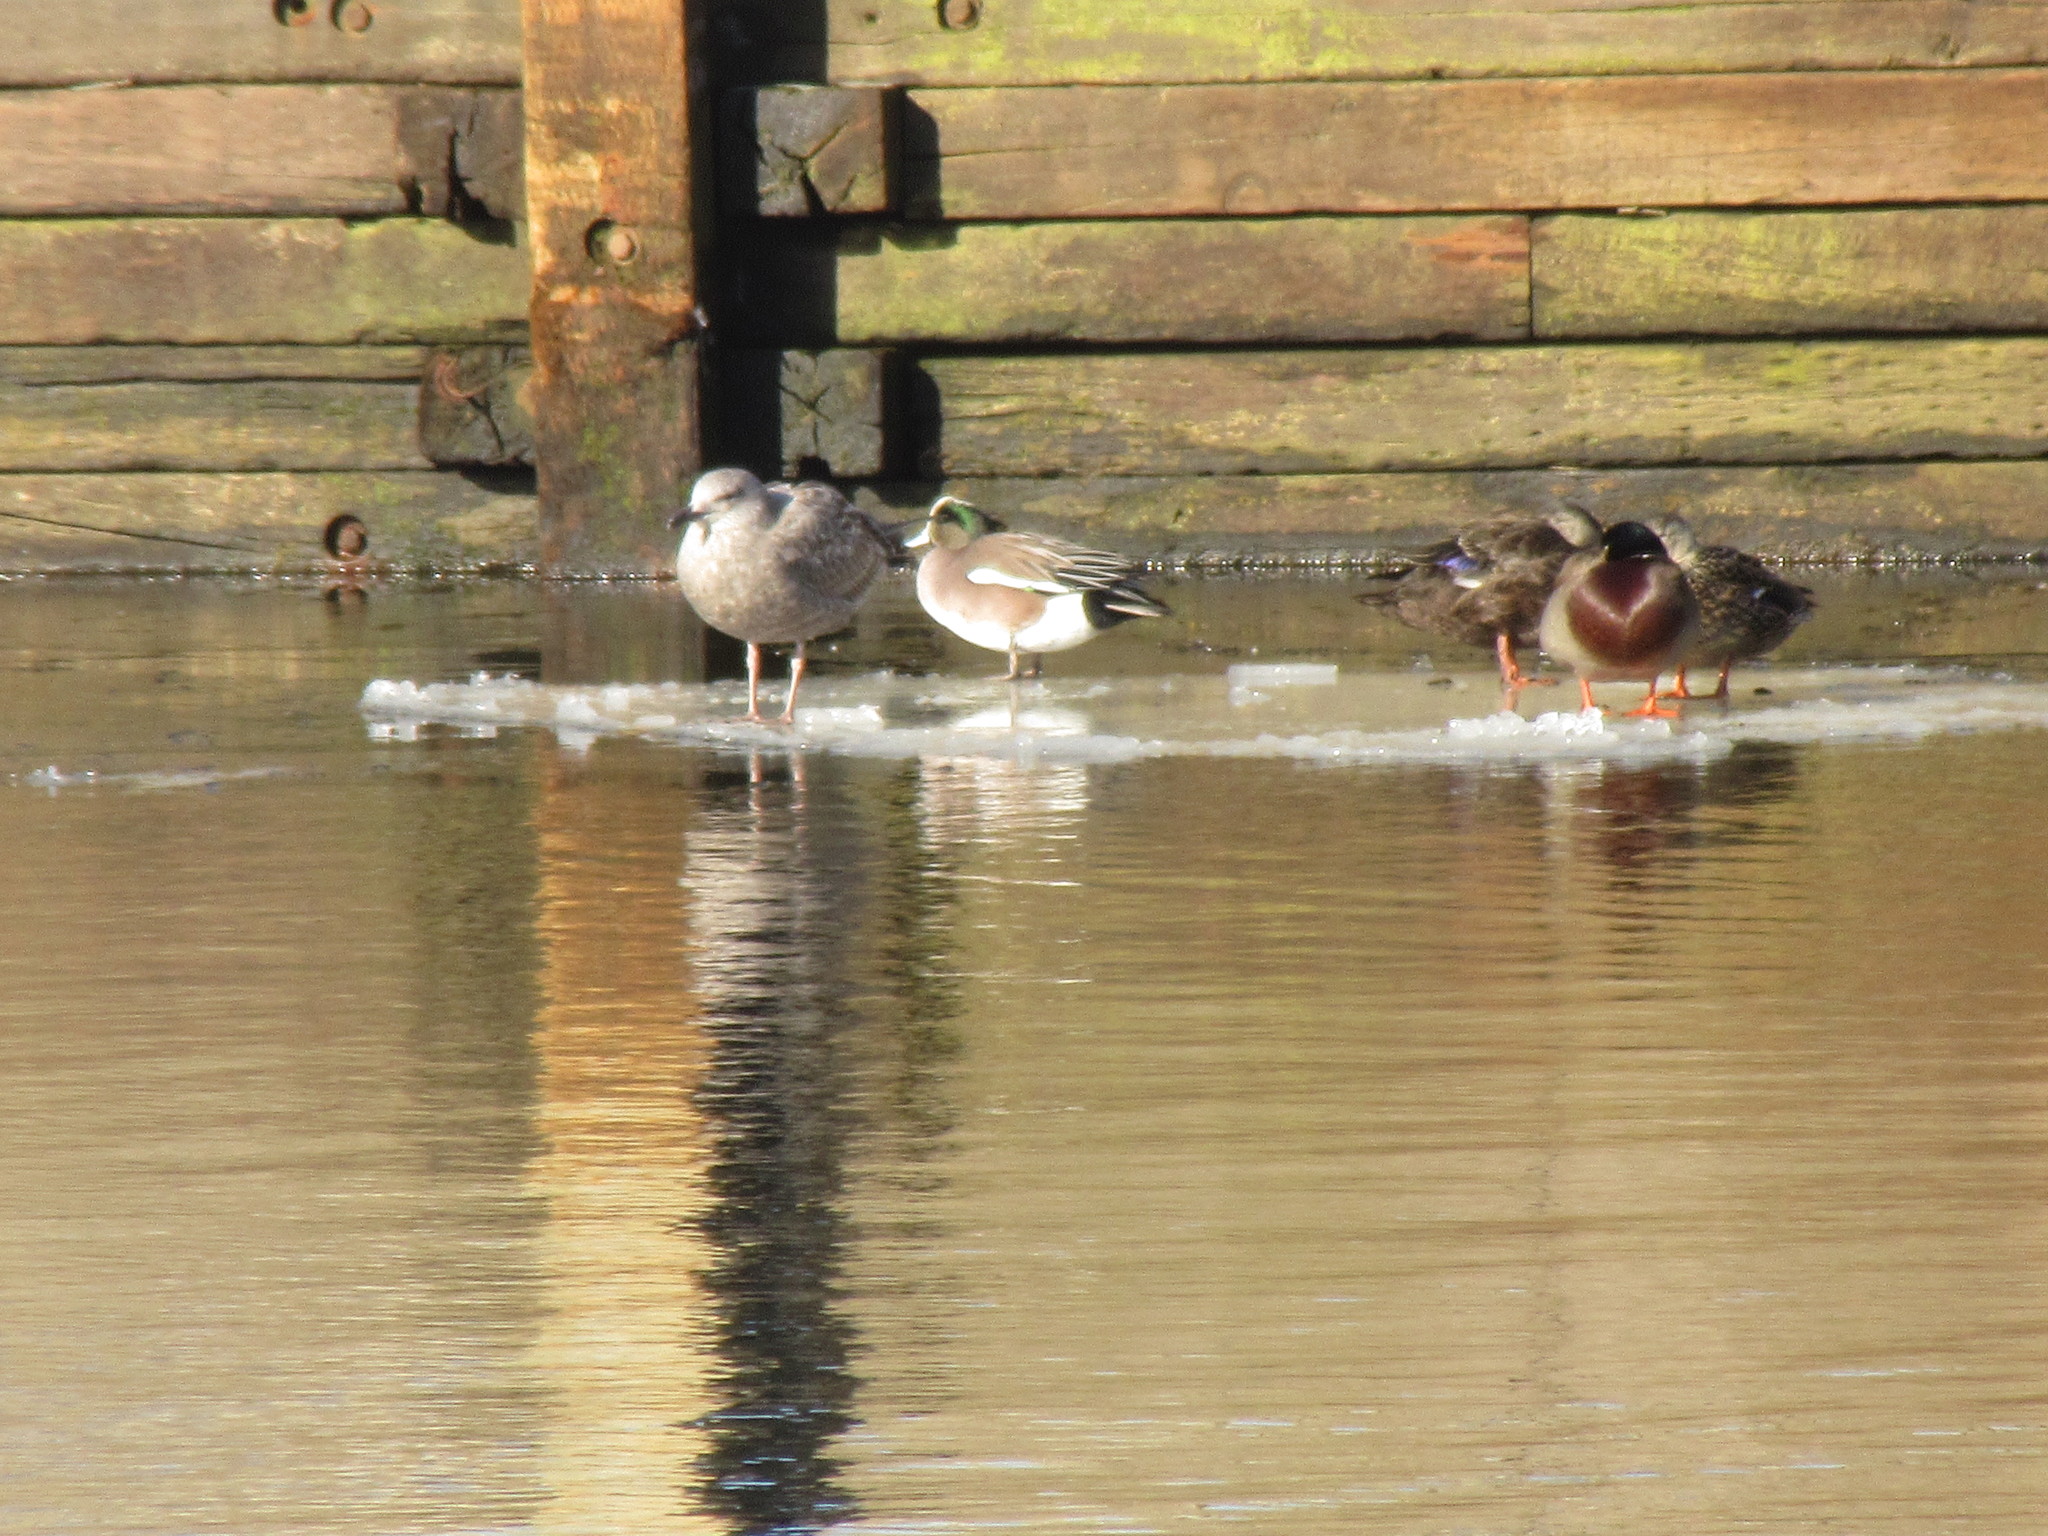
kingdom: Animalia
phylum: Chordata
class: Aves
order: Anseriformes
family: Anatidae
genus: Mareca
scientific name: Mareca americana
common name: American wigeon
